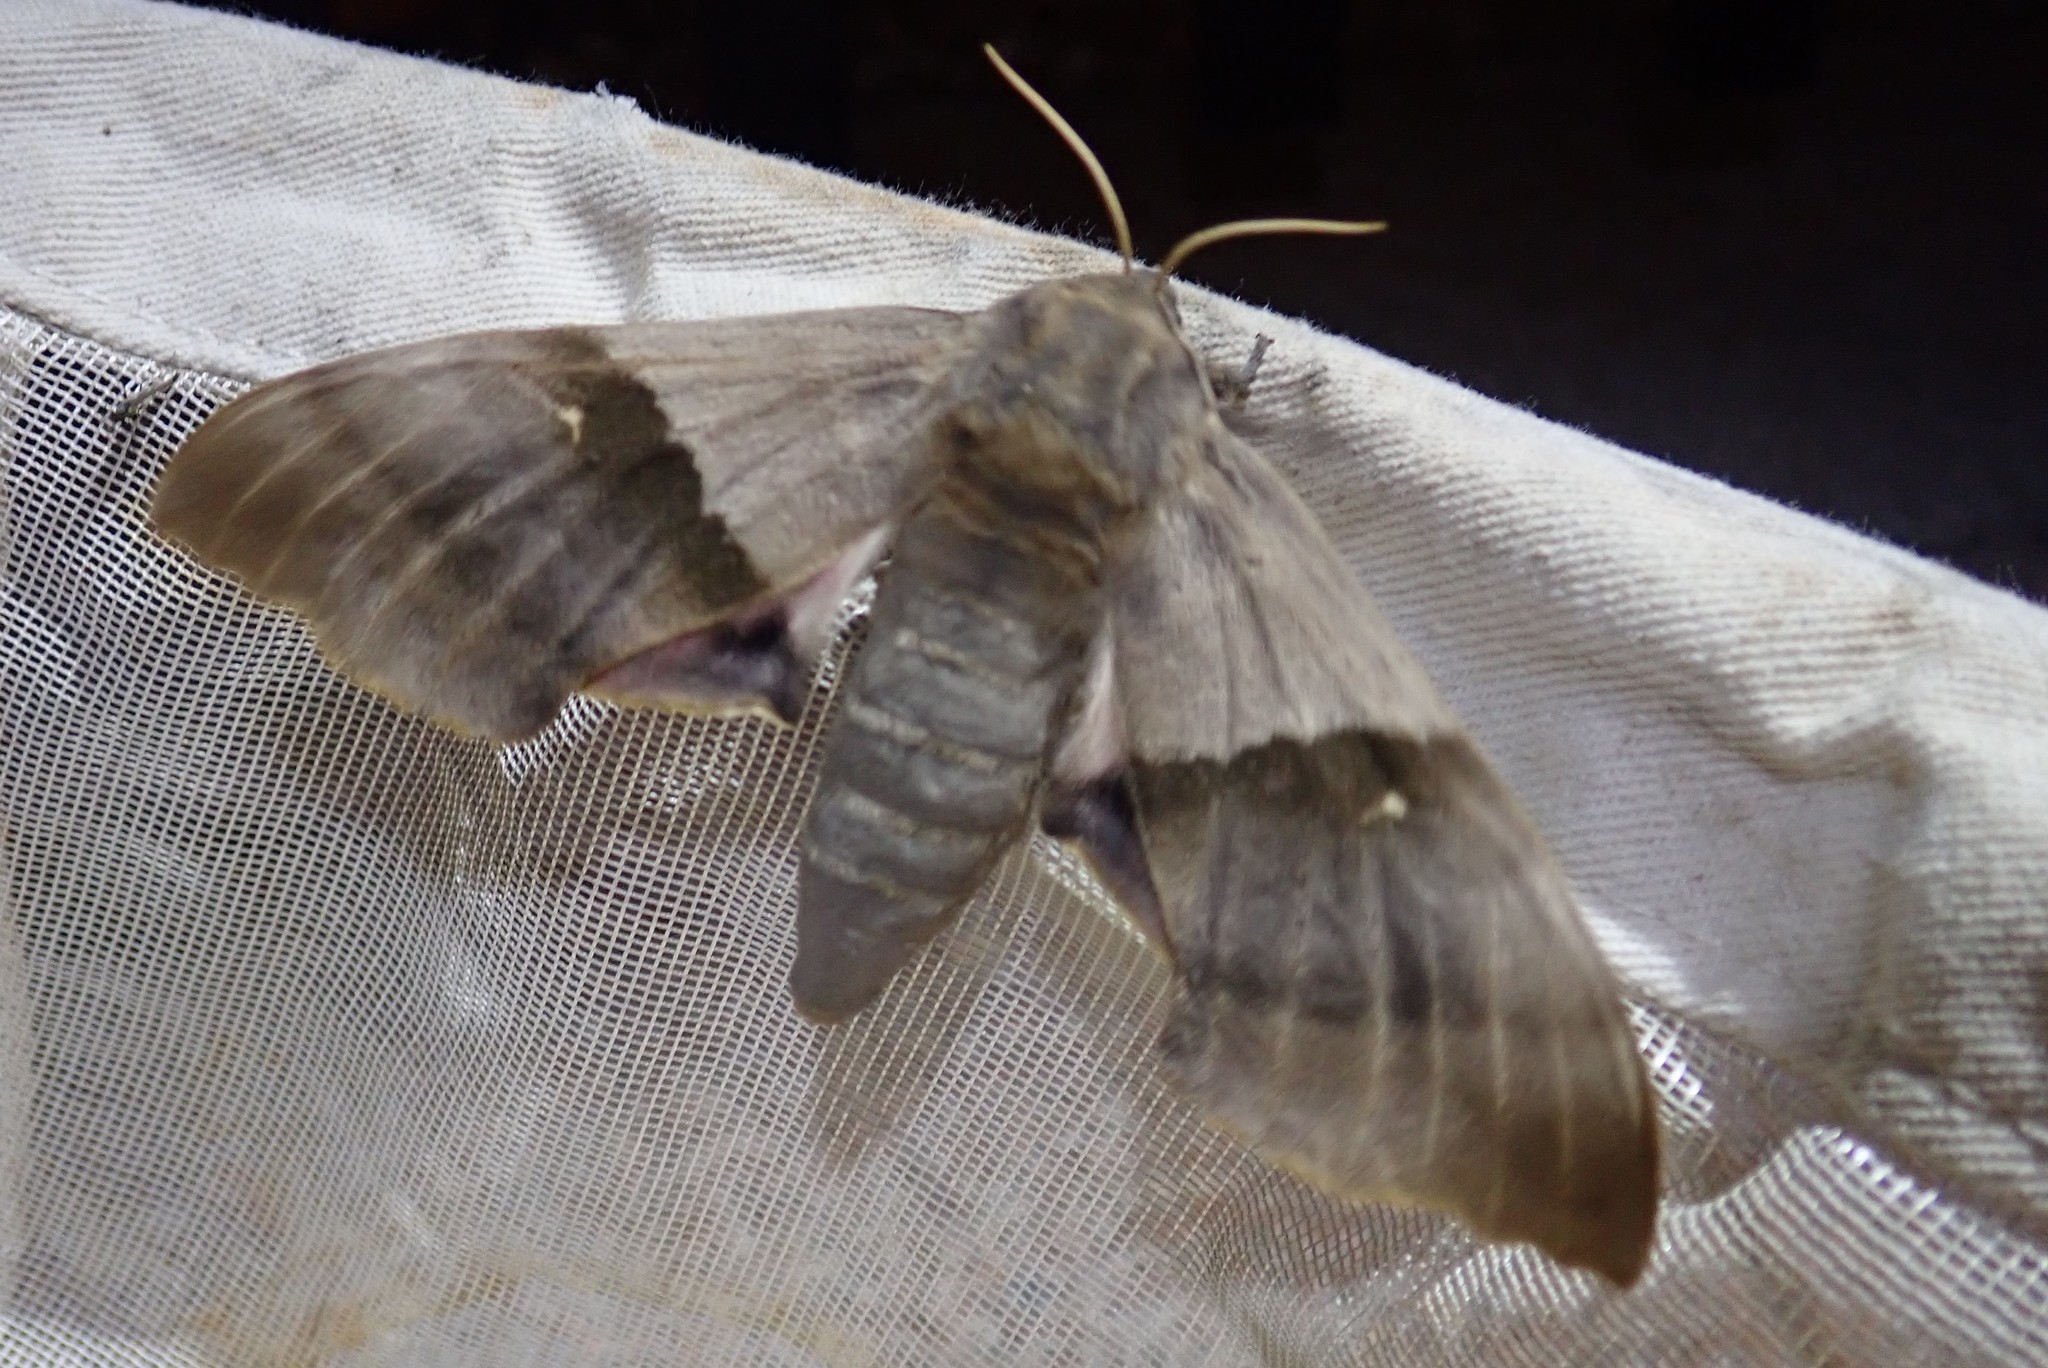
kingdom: Animalia
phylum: Arthropoda
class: Insecta
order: Lepidoptera
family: Sphingidae
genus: Pachysphinx
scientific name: Pachysphinx modesta
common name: Big poplar sphinx
